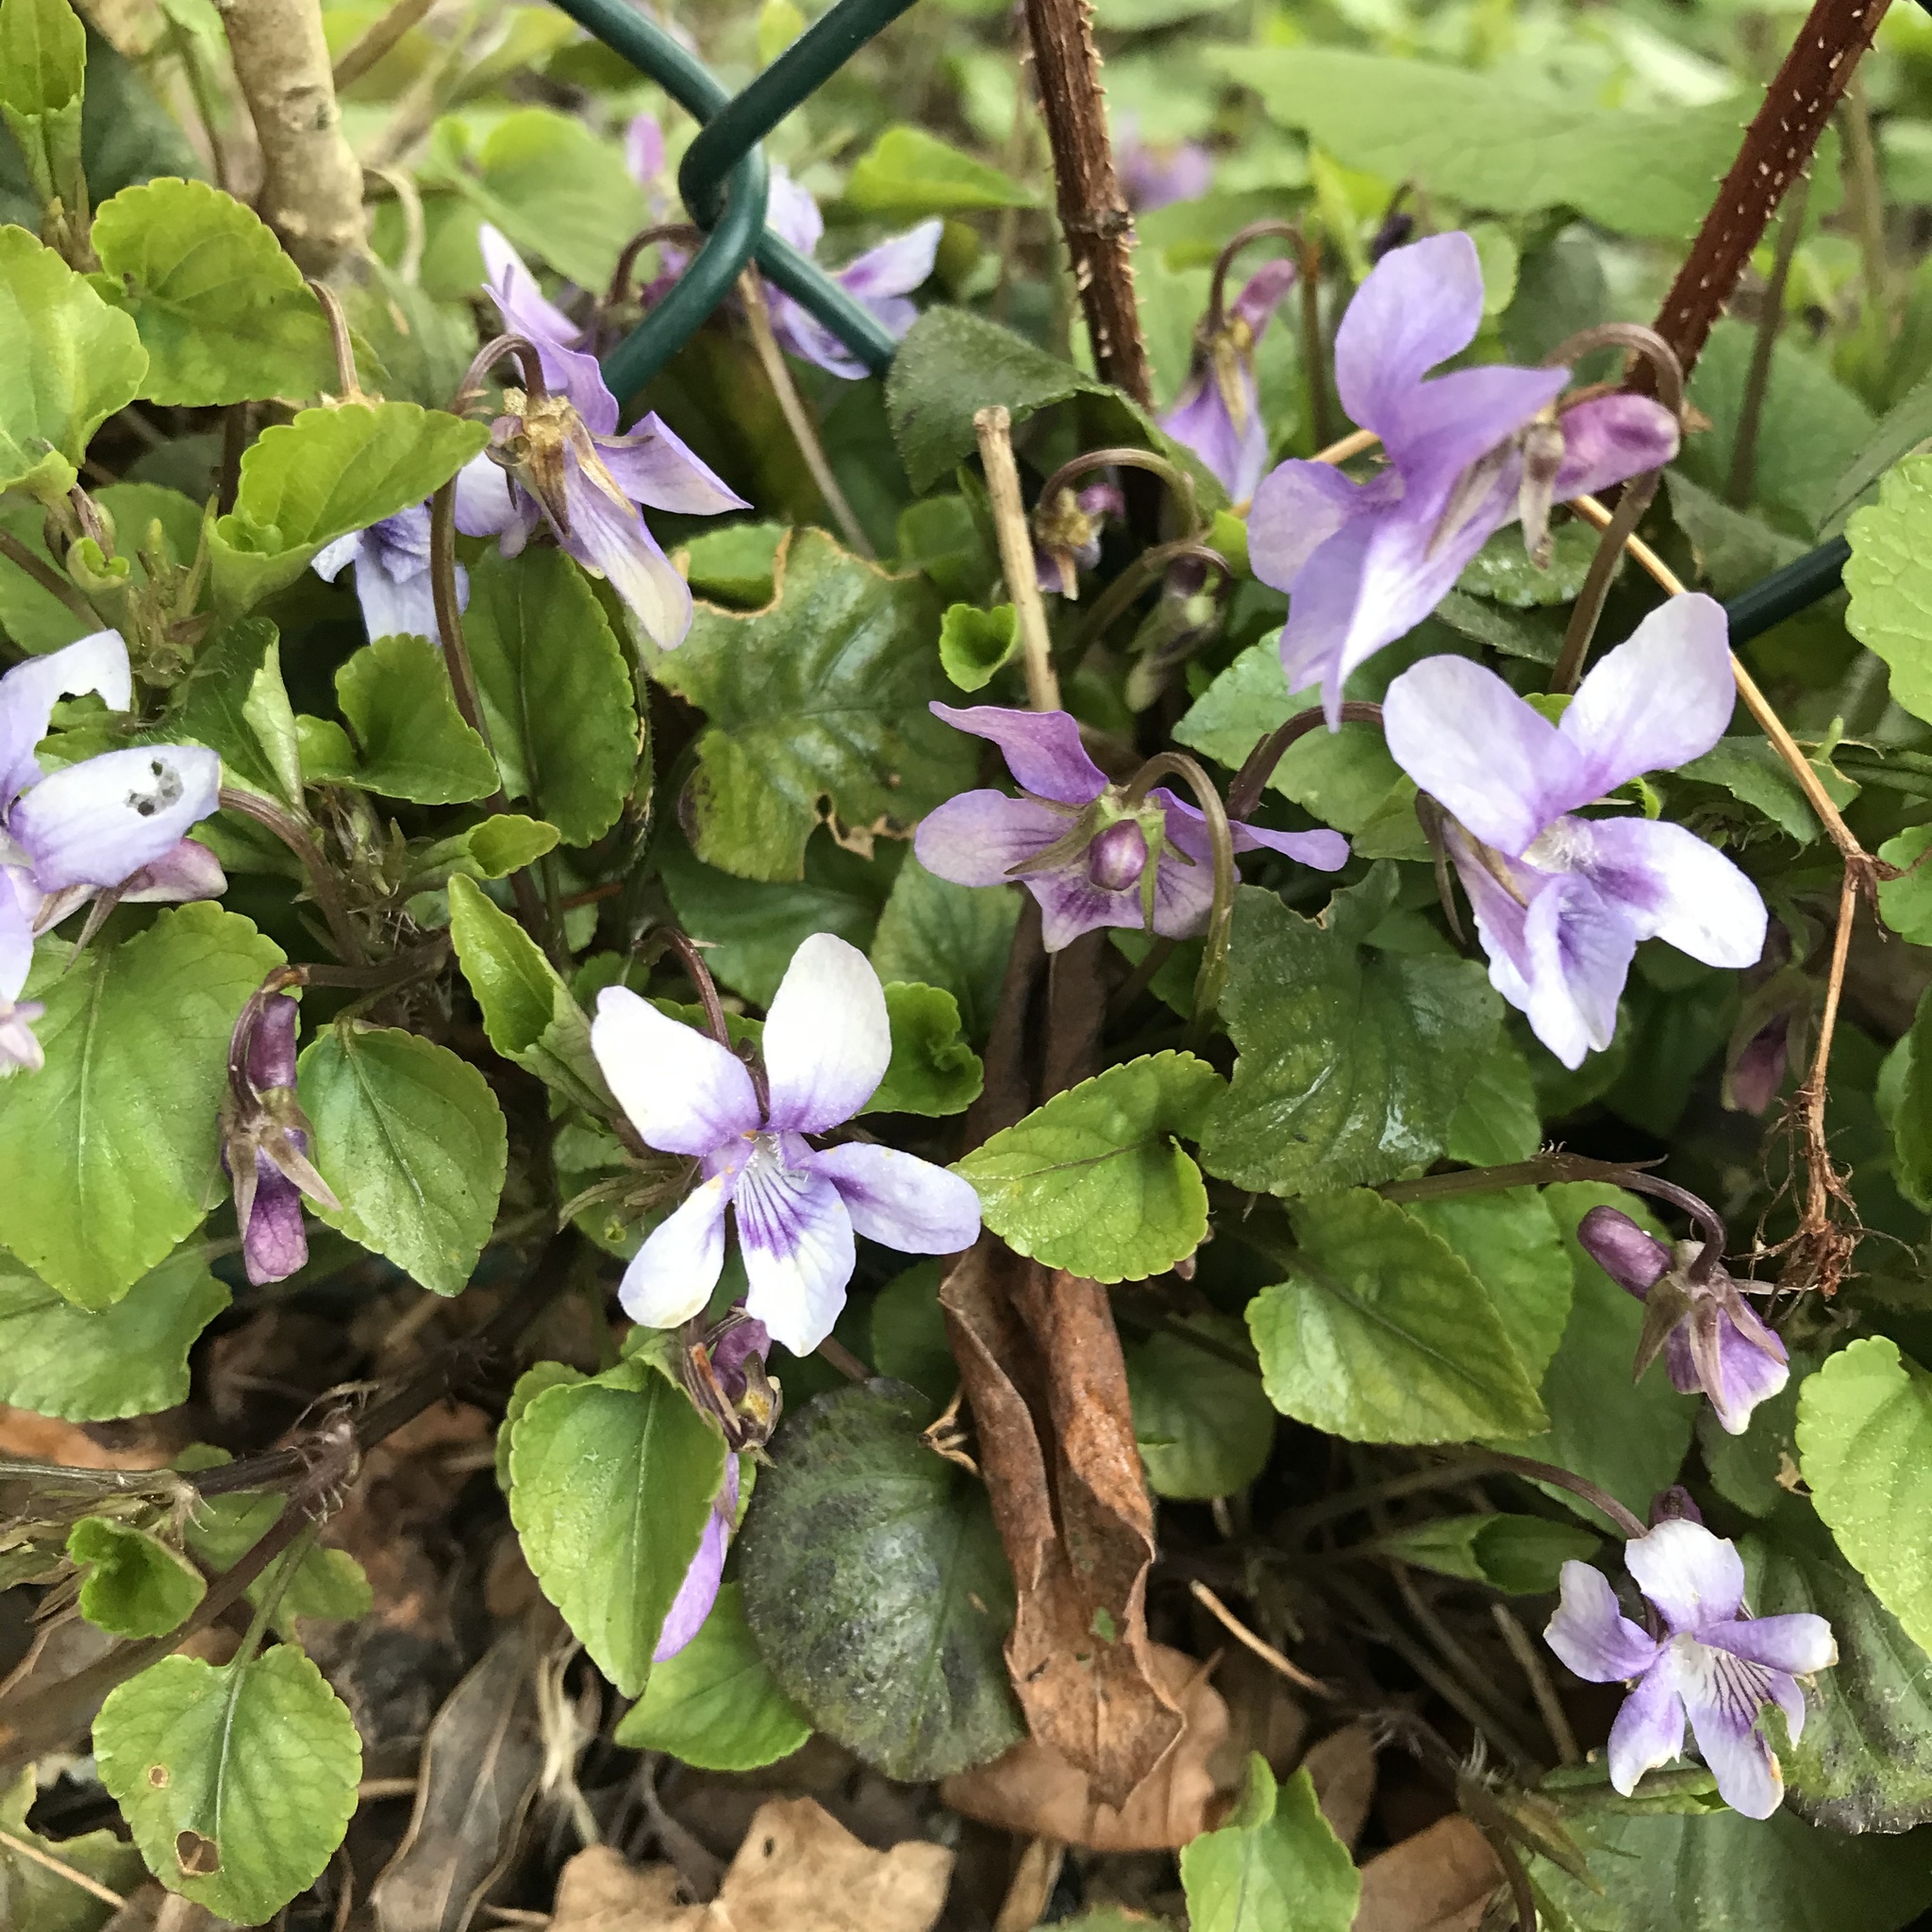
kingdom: Plantae
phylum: Tracheophyta
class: Magnoliopsida
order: Malpighiales
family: Violaceae
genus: Viola
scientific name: Viola reichenbachiana
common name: Early dog-violet
